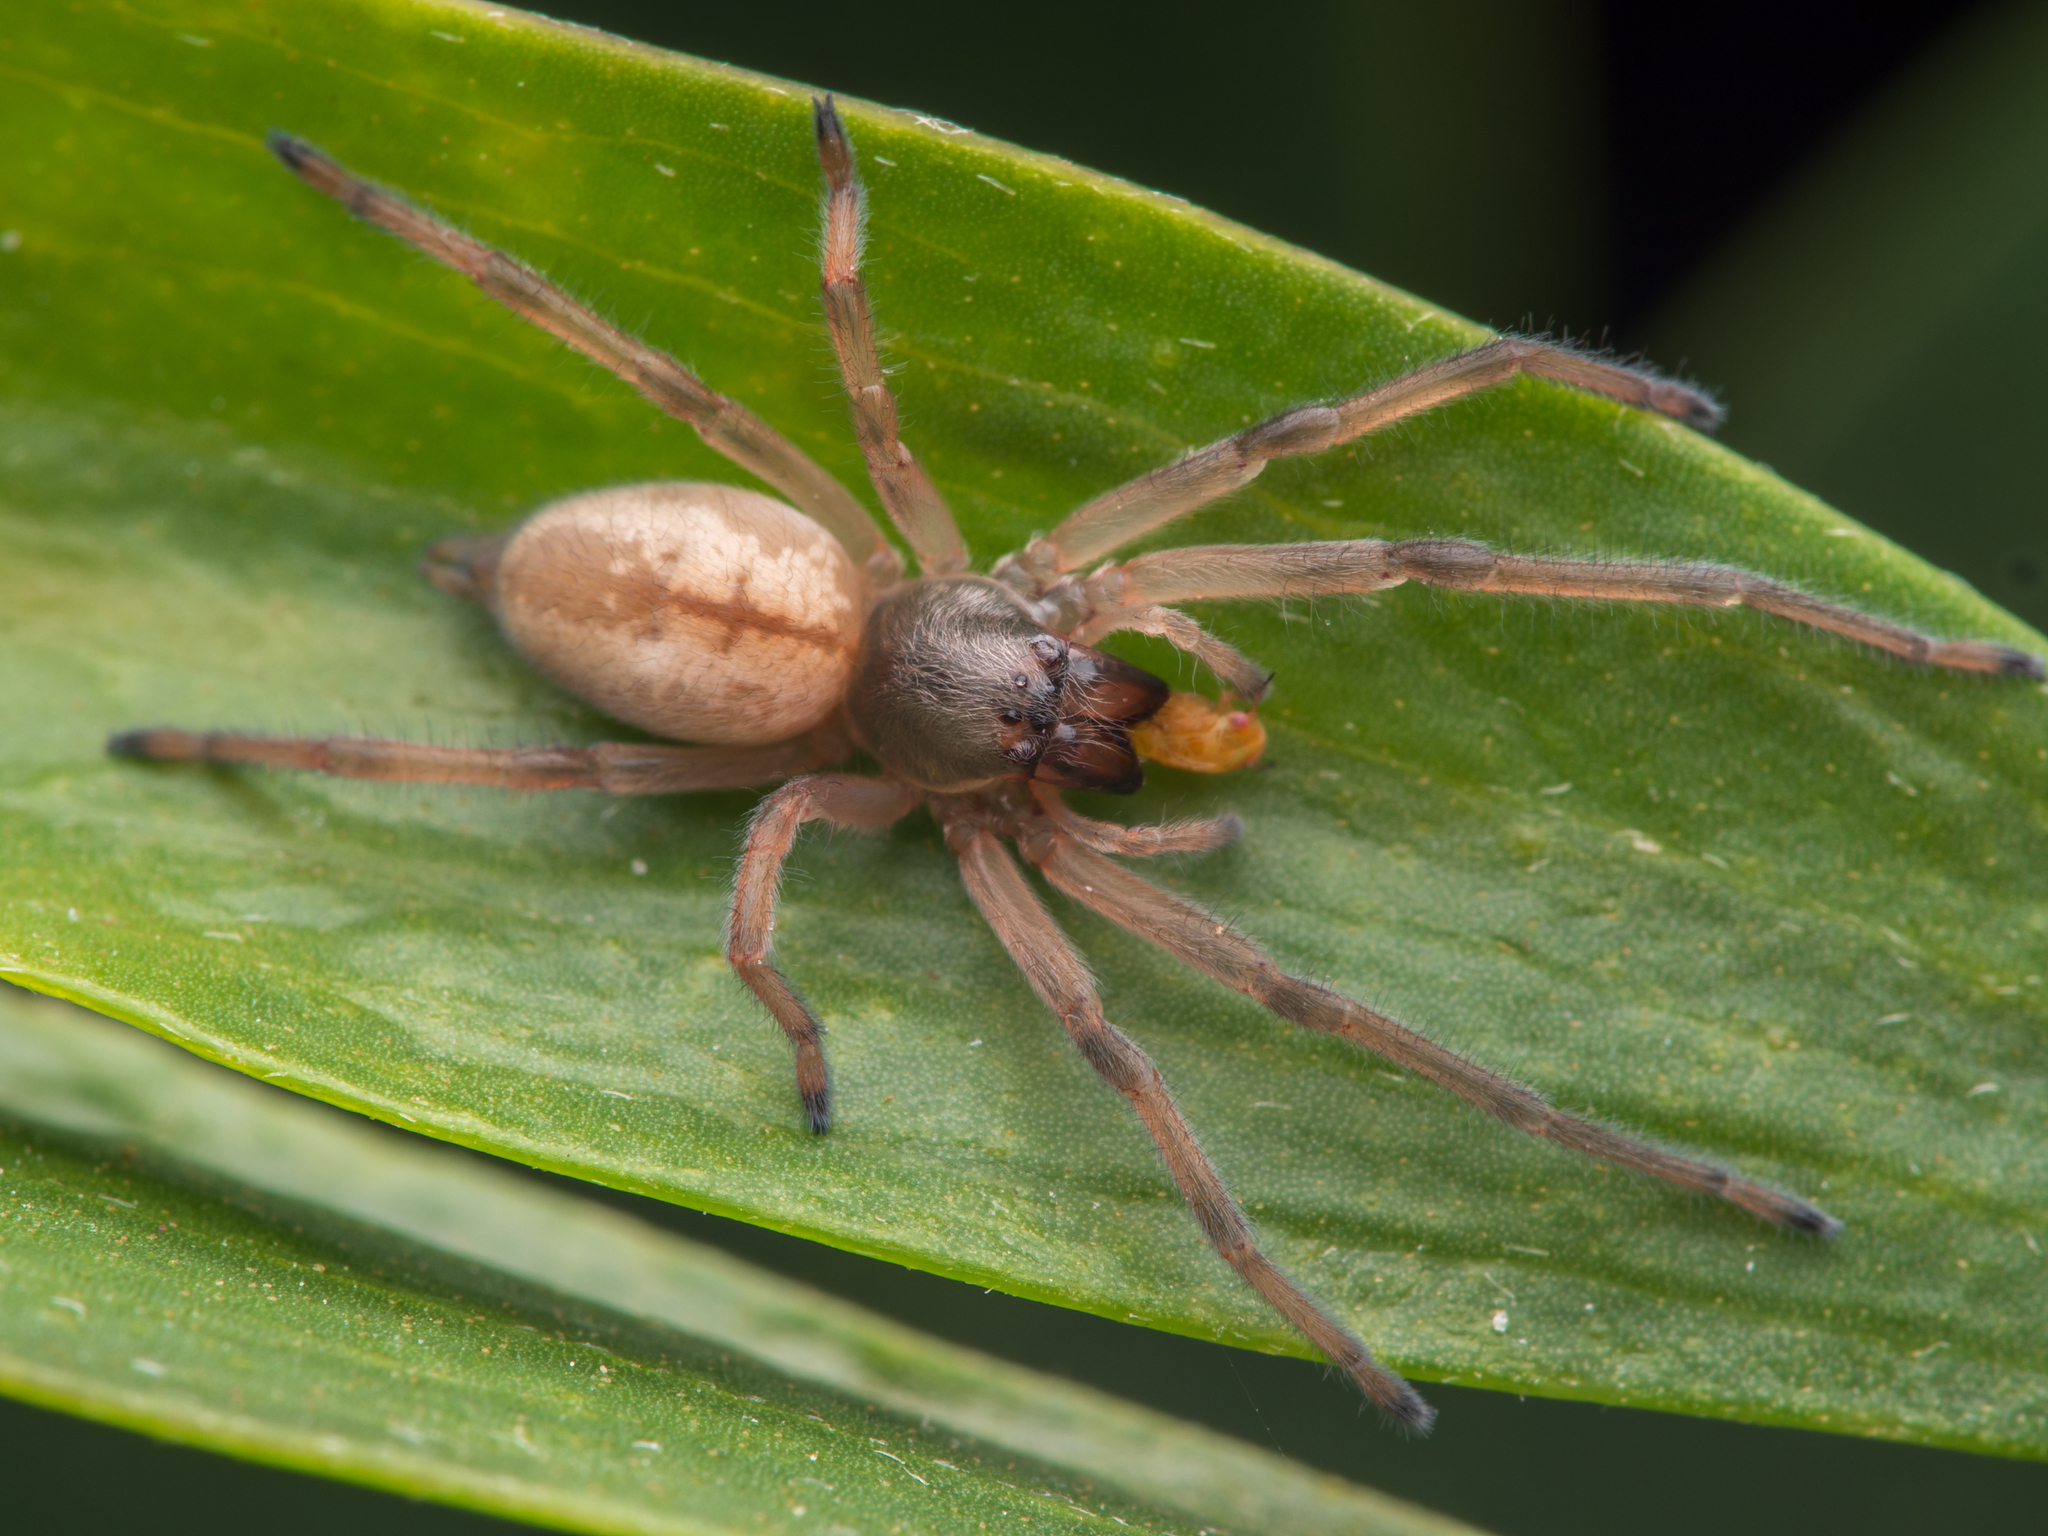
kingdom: Animalia
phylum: Arthropoda
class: Arachnida
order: Araneae
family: Cheiracanthiidae
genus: Eutittha
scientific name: Eutittha stratiotica
